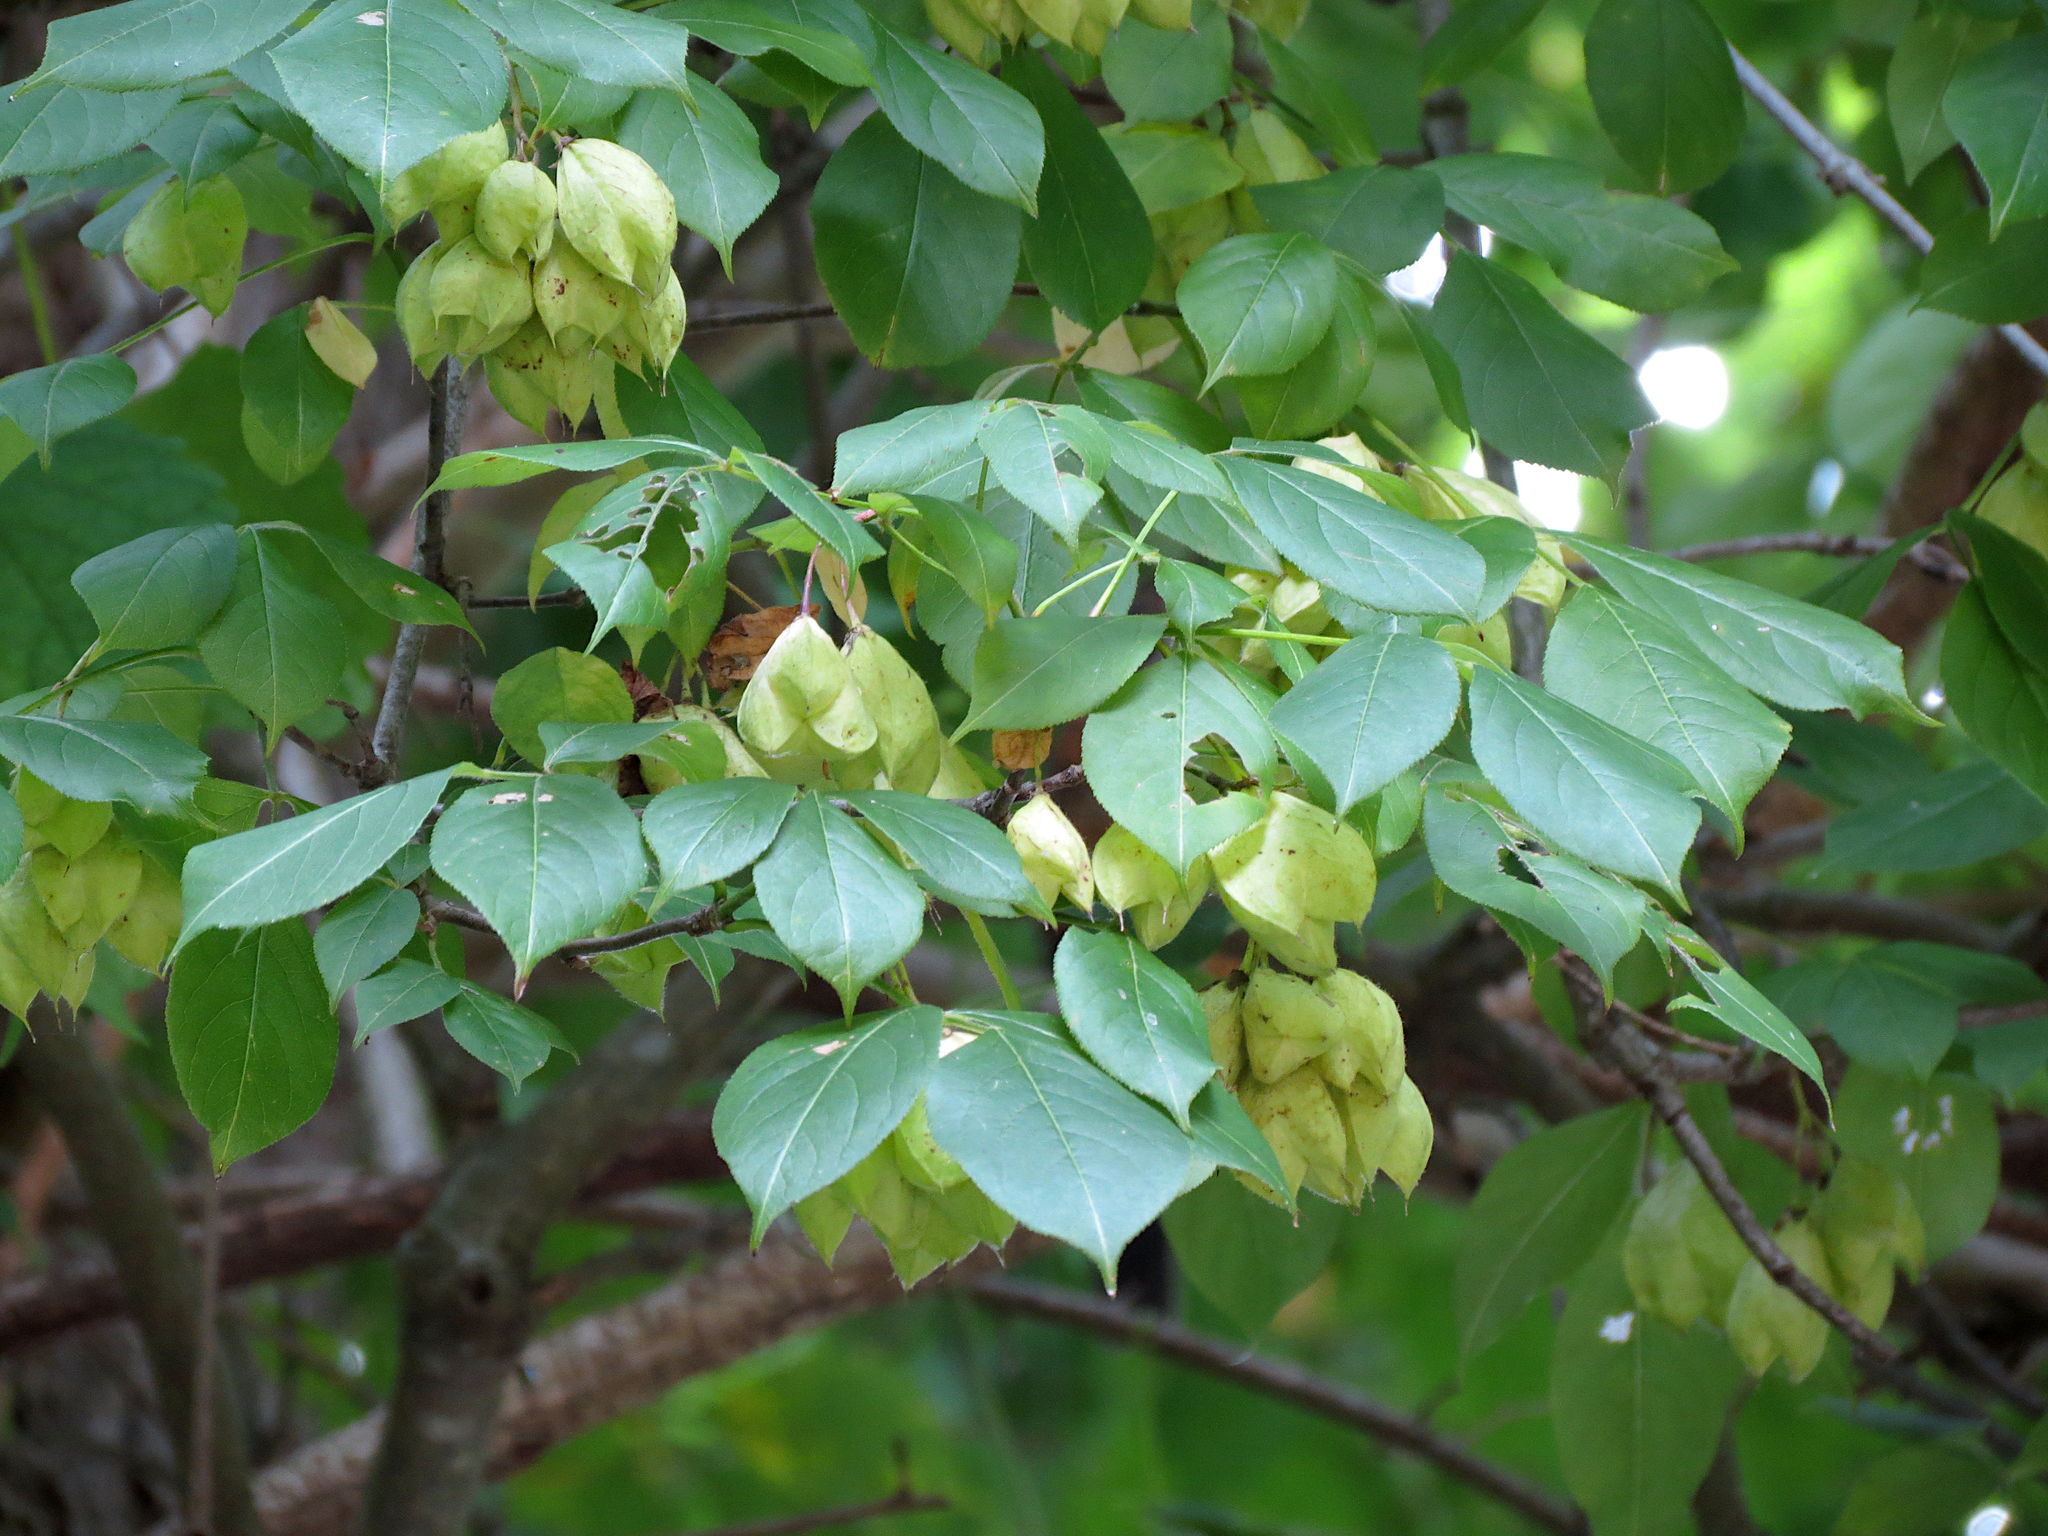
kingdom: Plantae
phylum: Tracheophyta
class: Magnoliopsida
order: Crossosomatales
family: Staphyleaceae
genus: Staphylea
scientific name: Staphylea trifolia
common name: American bladdernut
